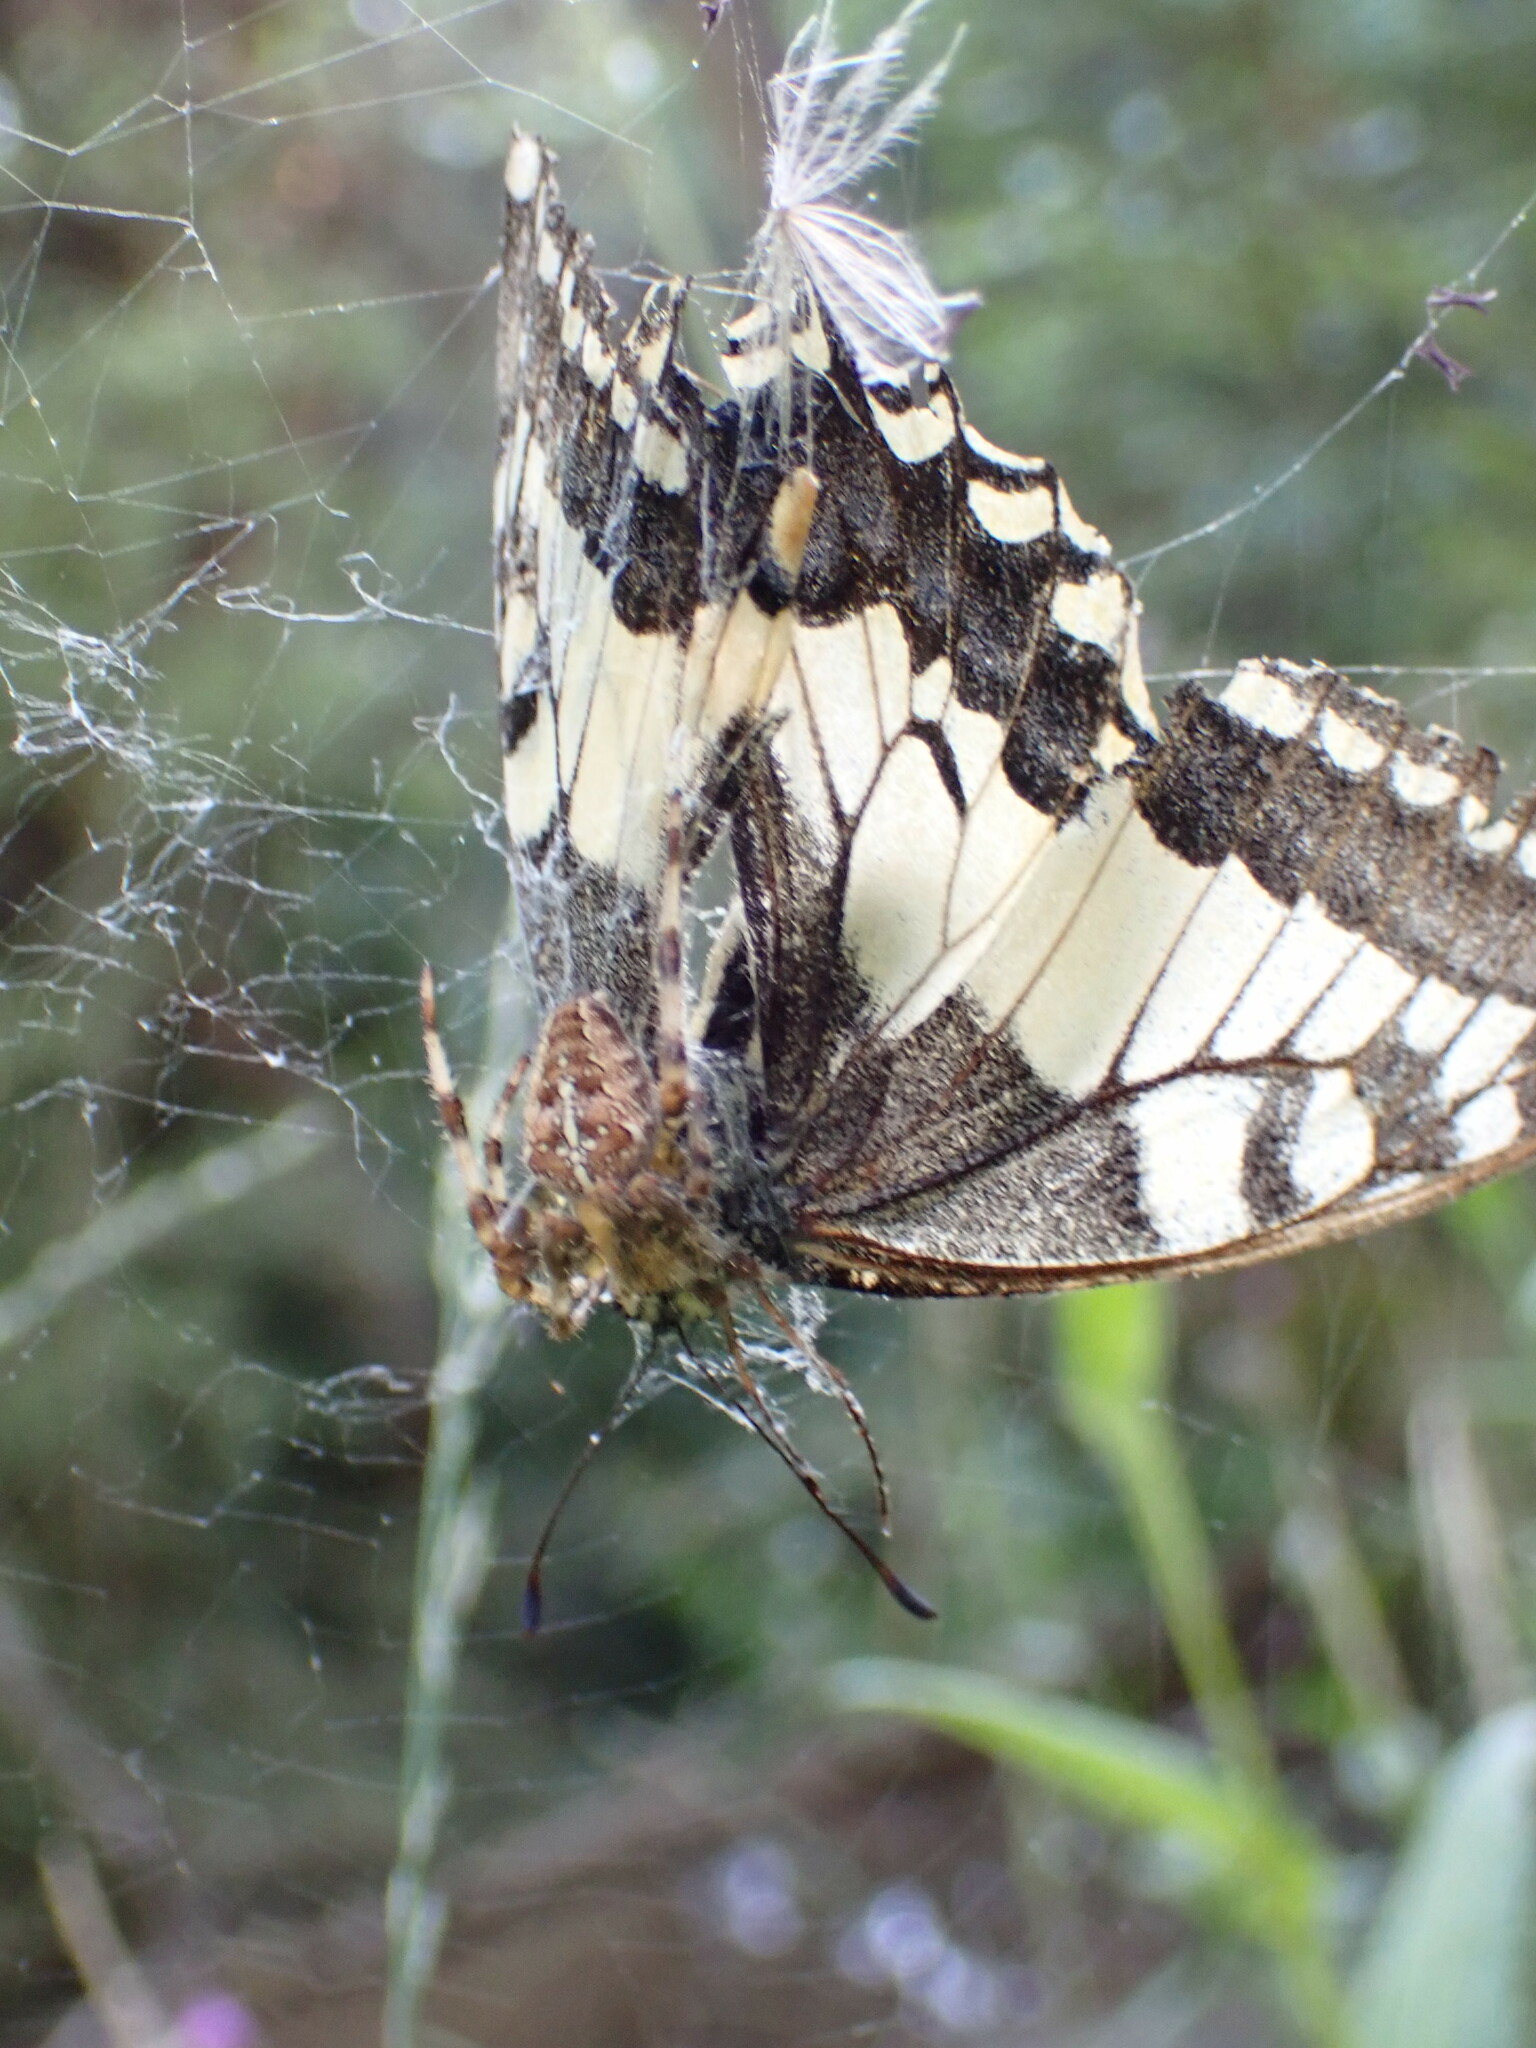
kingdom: Animalia
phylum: Arthropoda
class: Arachnida
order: Araneae
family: Araneidae
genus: Araneus
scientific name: Araneus diadematus
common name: Cross orbweaver
